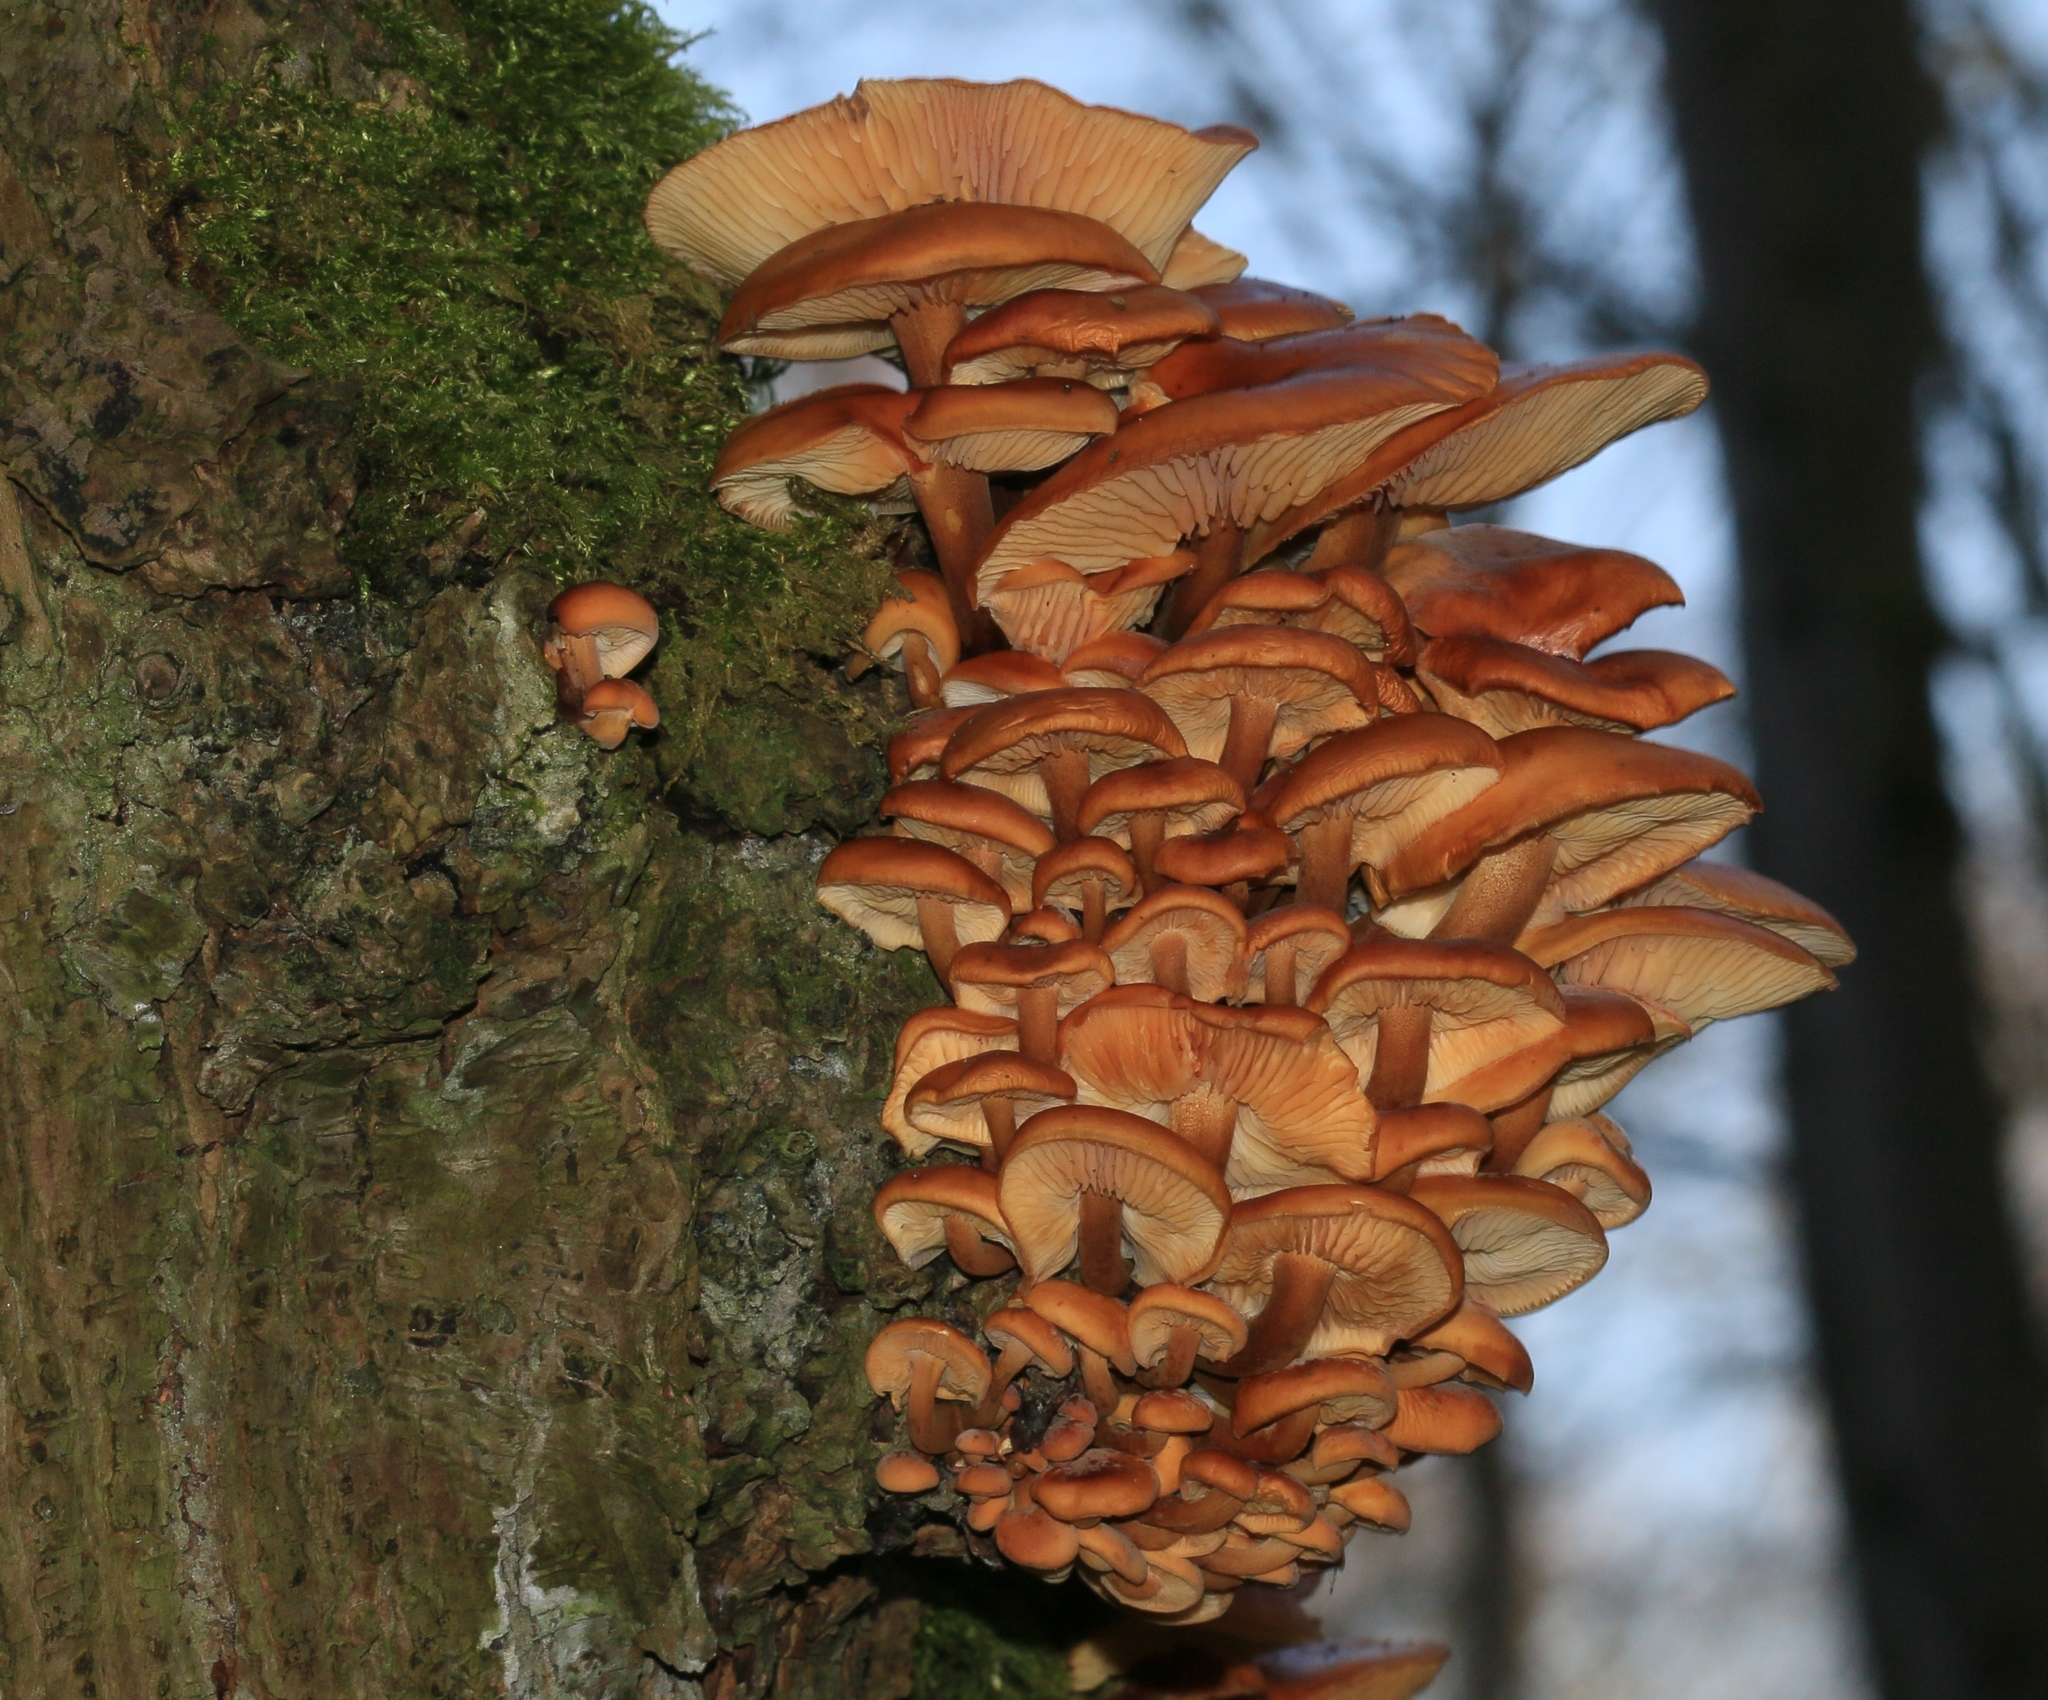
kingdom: Fungi
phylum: Basidiomycota
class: Agaricomycetes
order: Agaricales
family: Physalacriaceae
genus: Flammulina
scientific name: Flammulina
